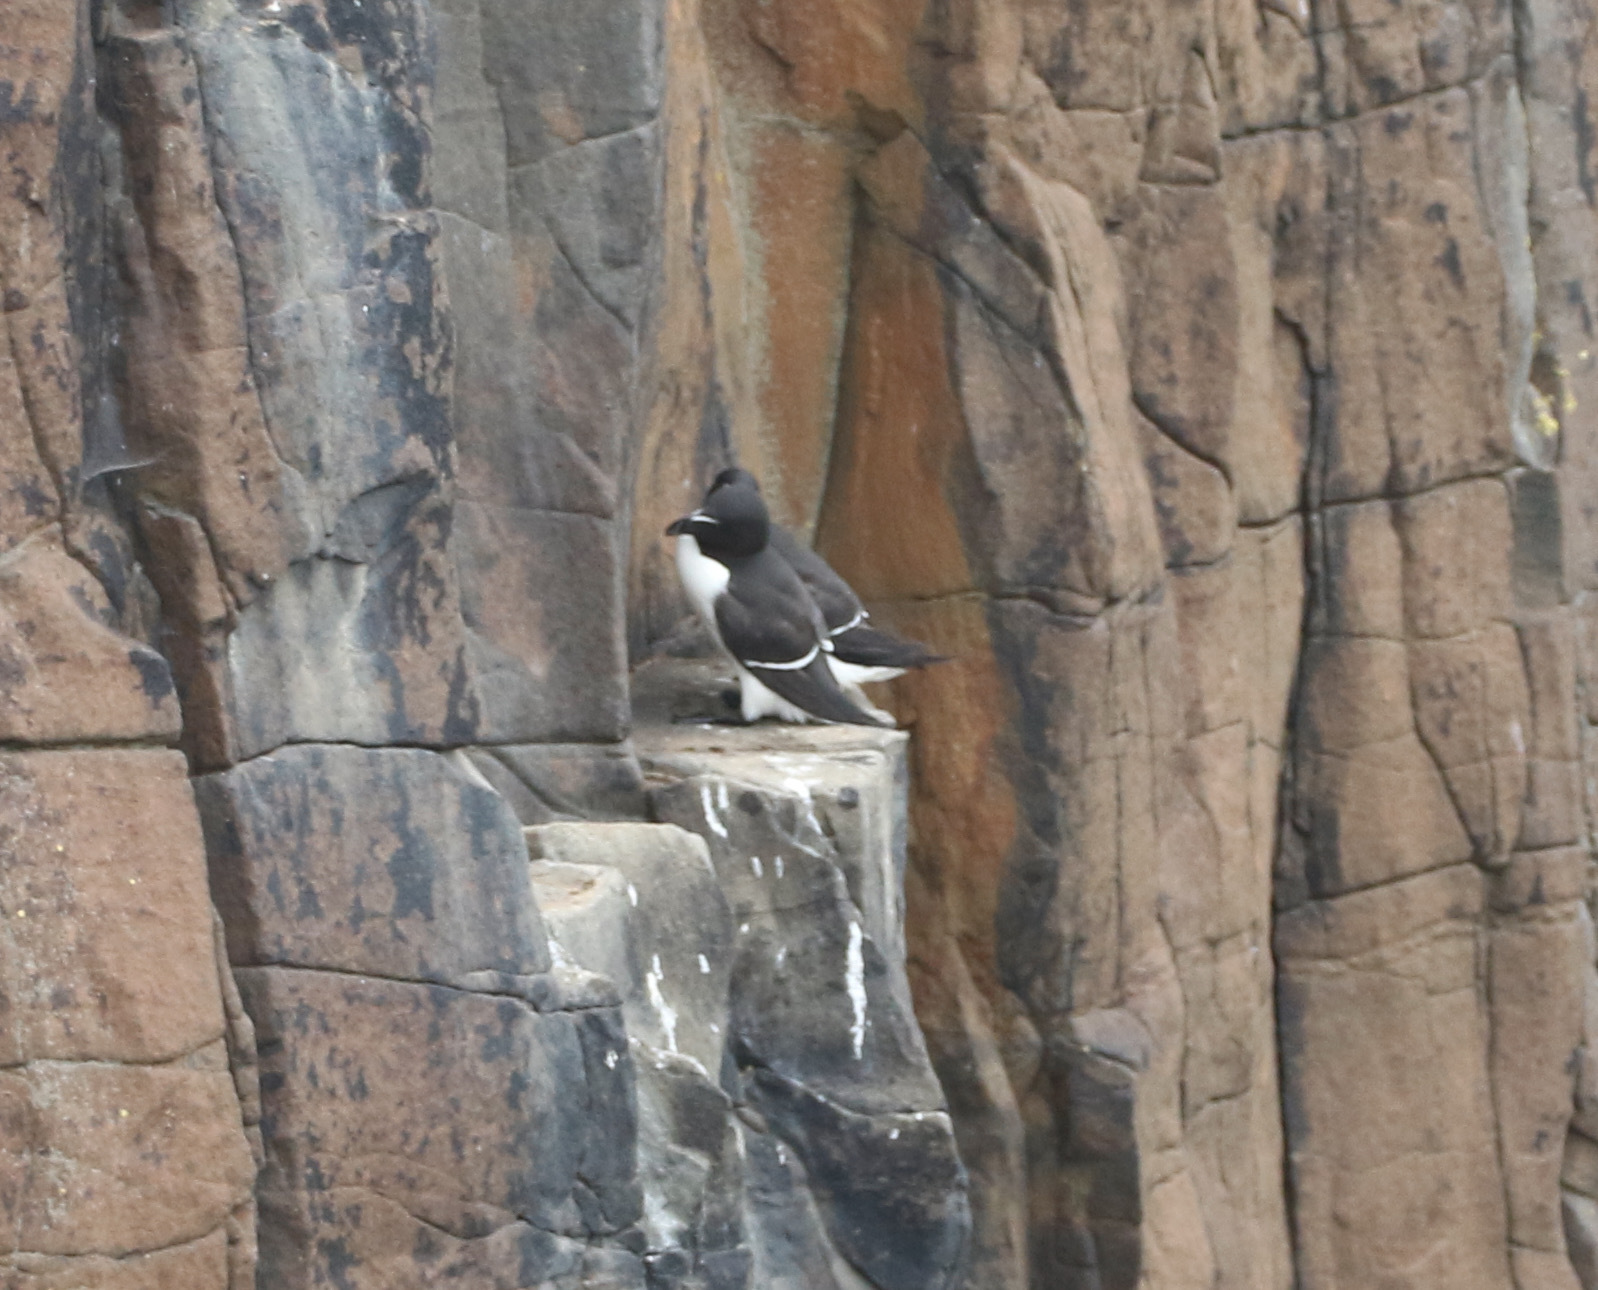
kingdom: Animalia
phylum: Chordata
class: Aves
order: Charadriiformes
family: Alcidae
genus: Alca
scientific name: Alca torda
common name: Razorbill
